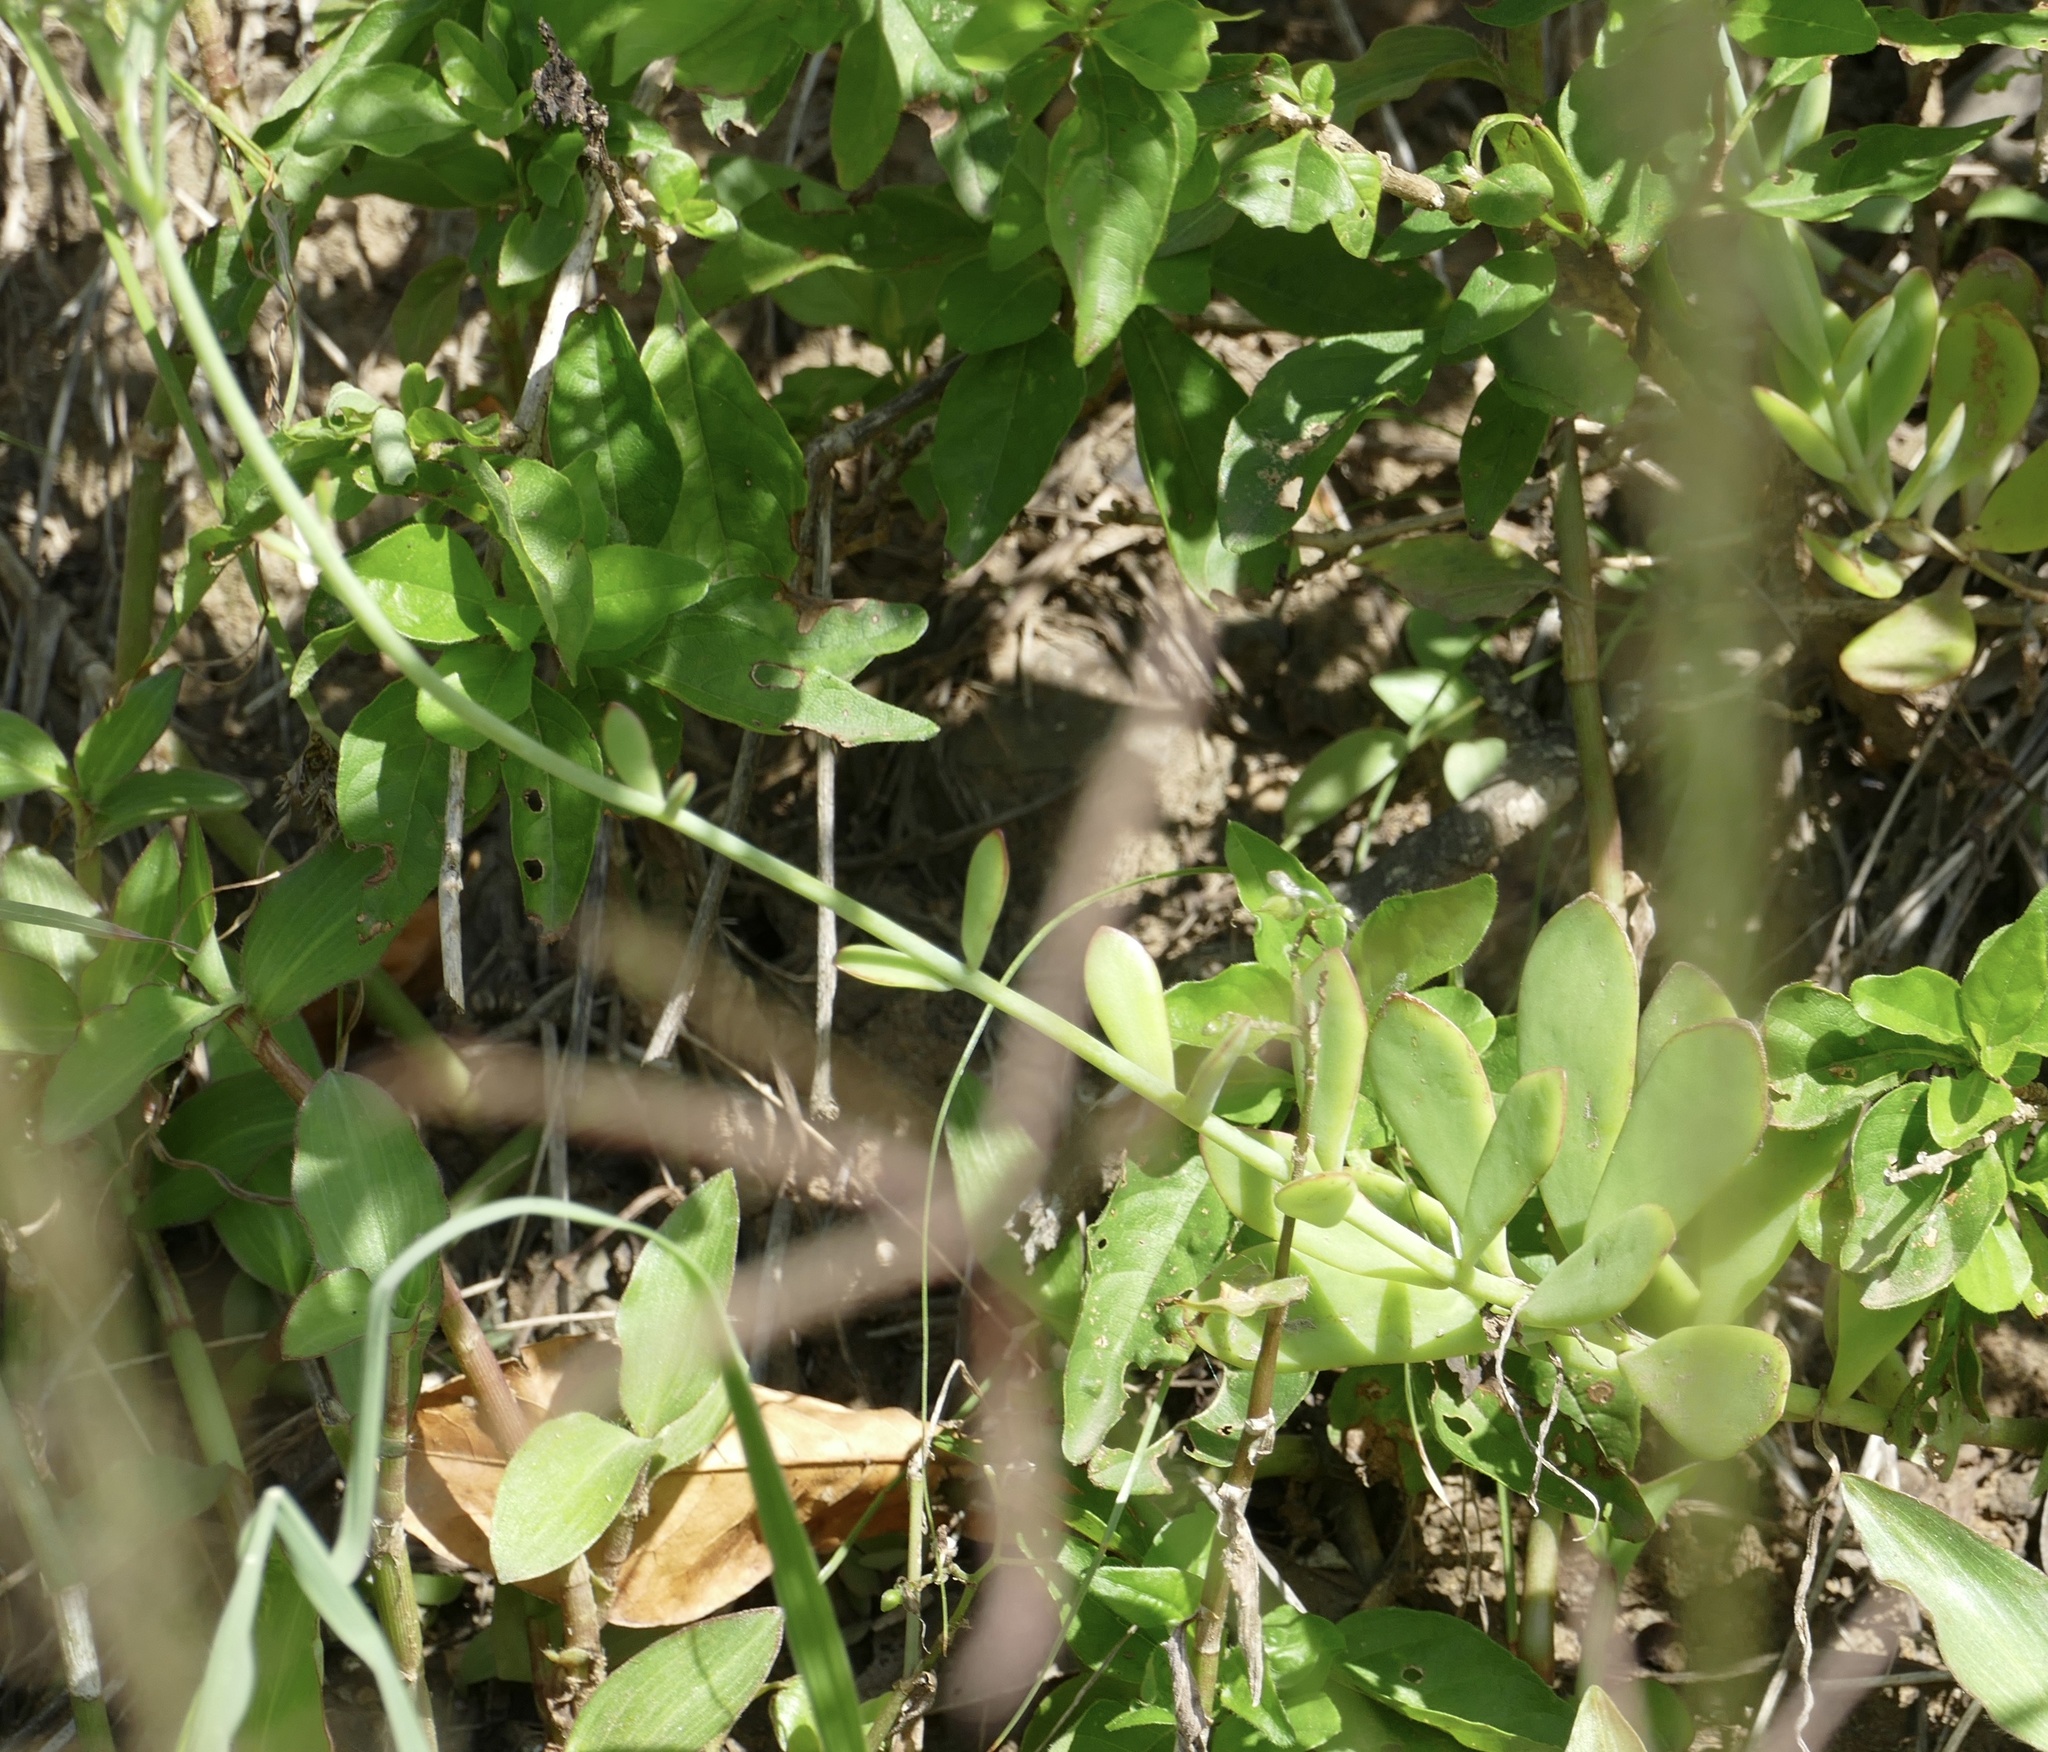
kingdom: Plantae
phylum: Tracheophyta
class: Magnoliopsida
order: Saxifragales
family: Crassulaceae
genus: Kalanchoe
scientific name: Kalanchoe rotundifolia
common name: Common kalanchoe
